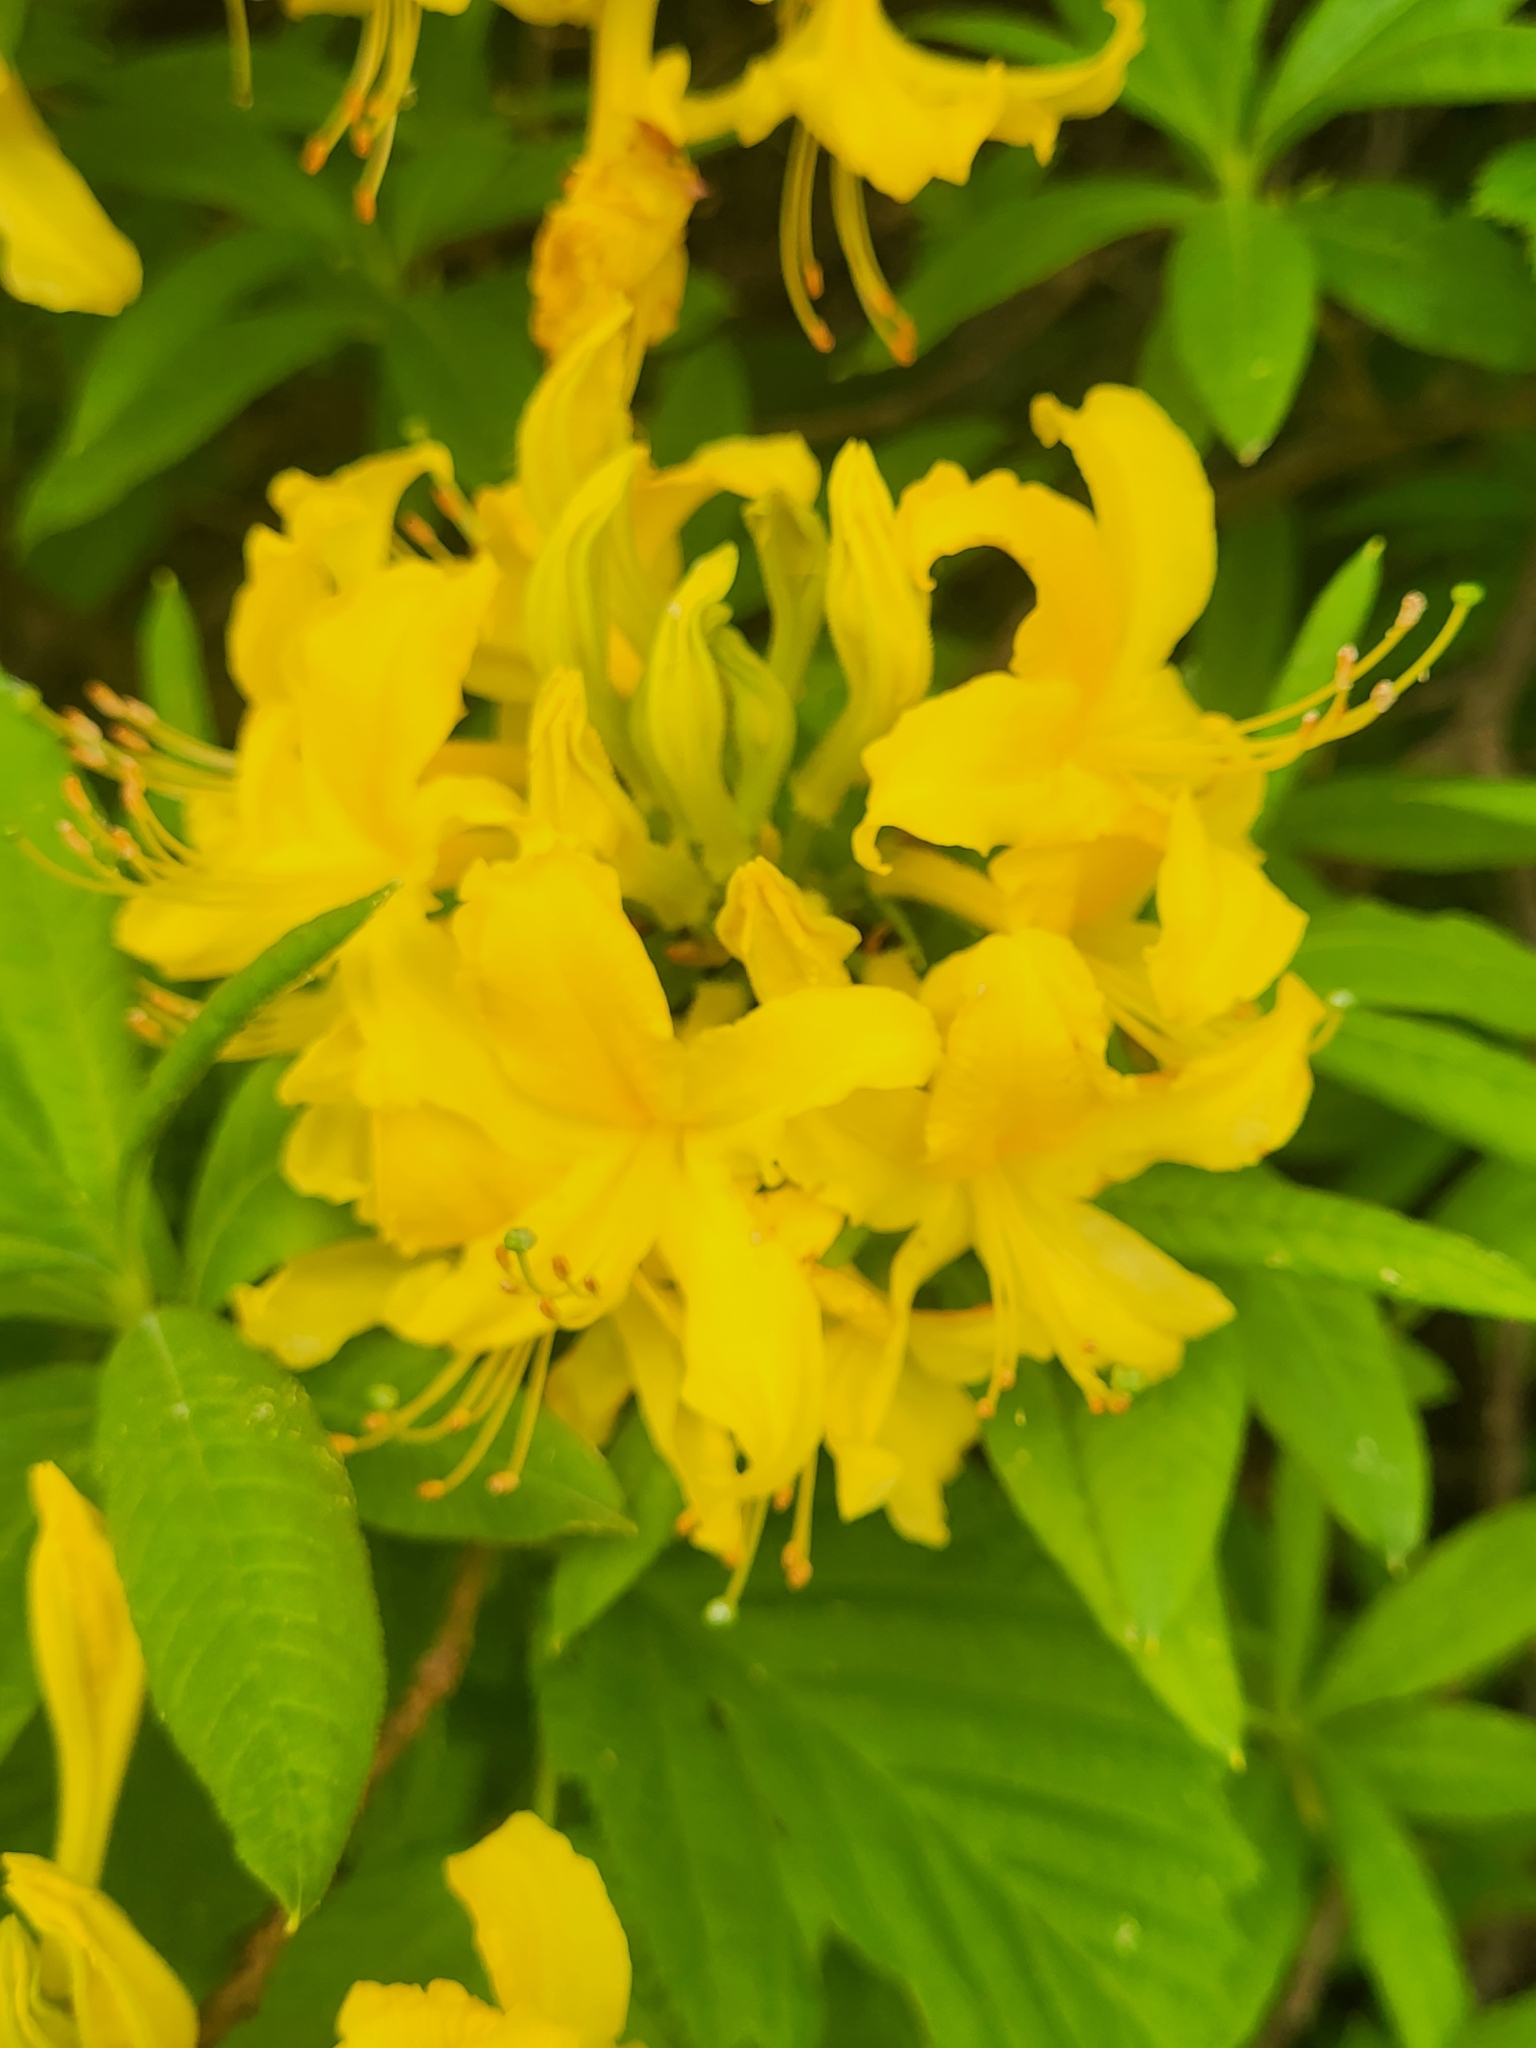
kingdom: Plantae
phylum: Tracheophyta
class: Magnoliopsida
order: Ericales
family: Ericaceae
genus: Rhododendron
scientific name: Rhododendron luteum
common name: Yellow azalea
